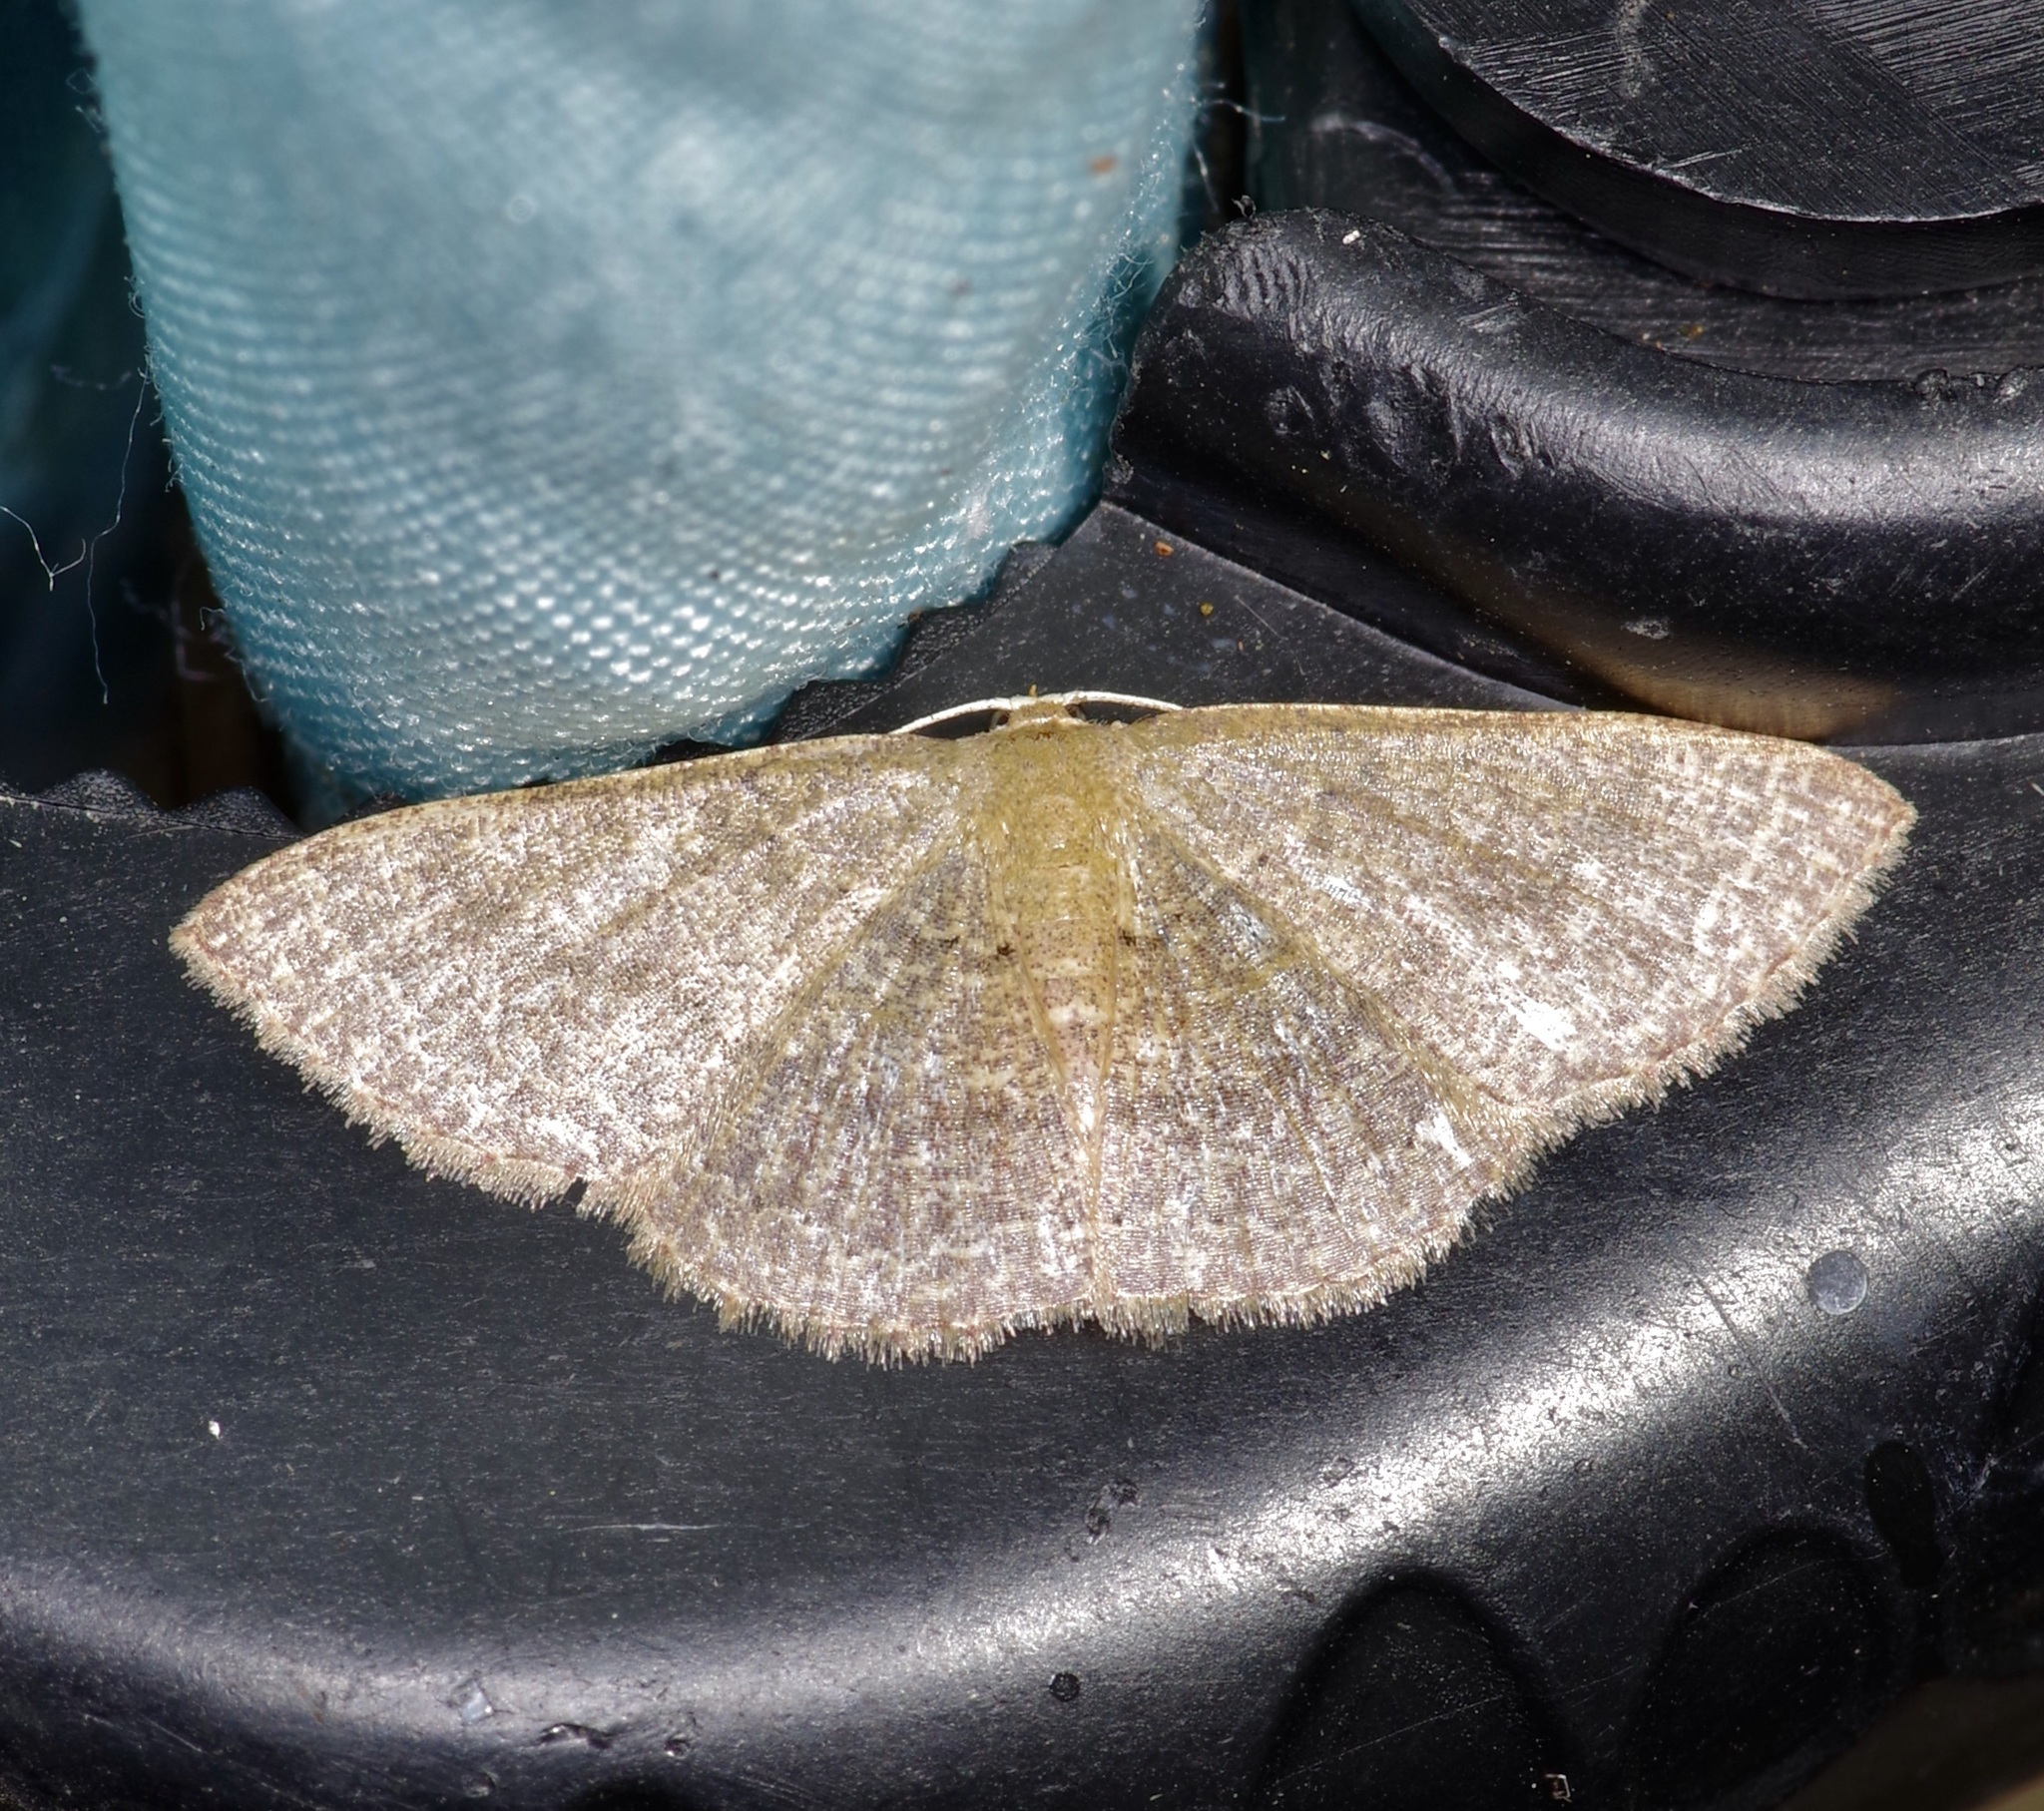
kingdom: Animalia
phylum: Arthropoda
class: Insecta
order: Lepidoptera
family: Geometridae
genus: Pleuroprucha
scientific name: Pleuroprucha insulsaria
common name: Common tan wave
